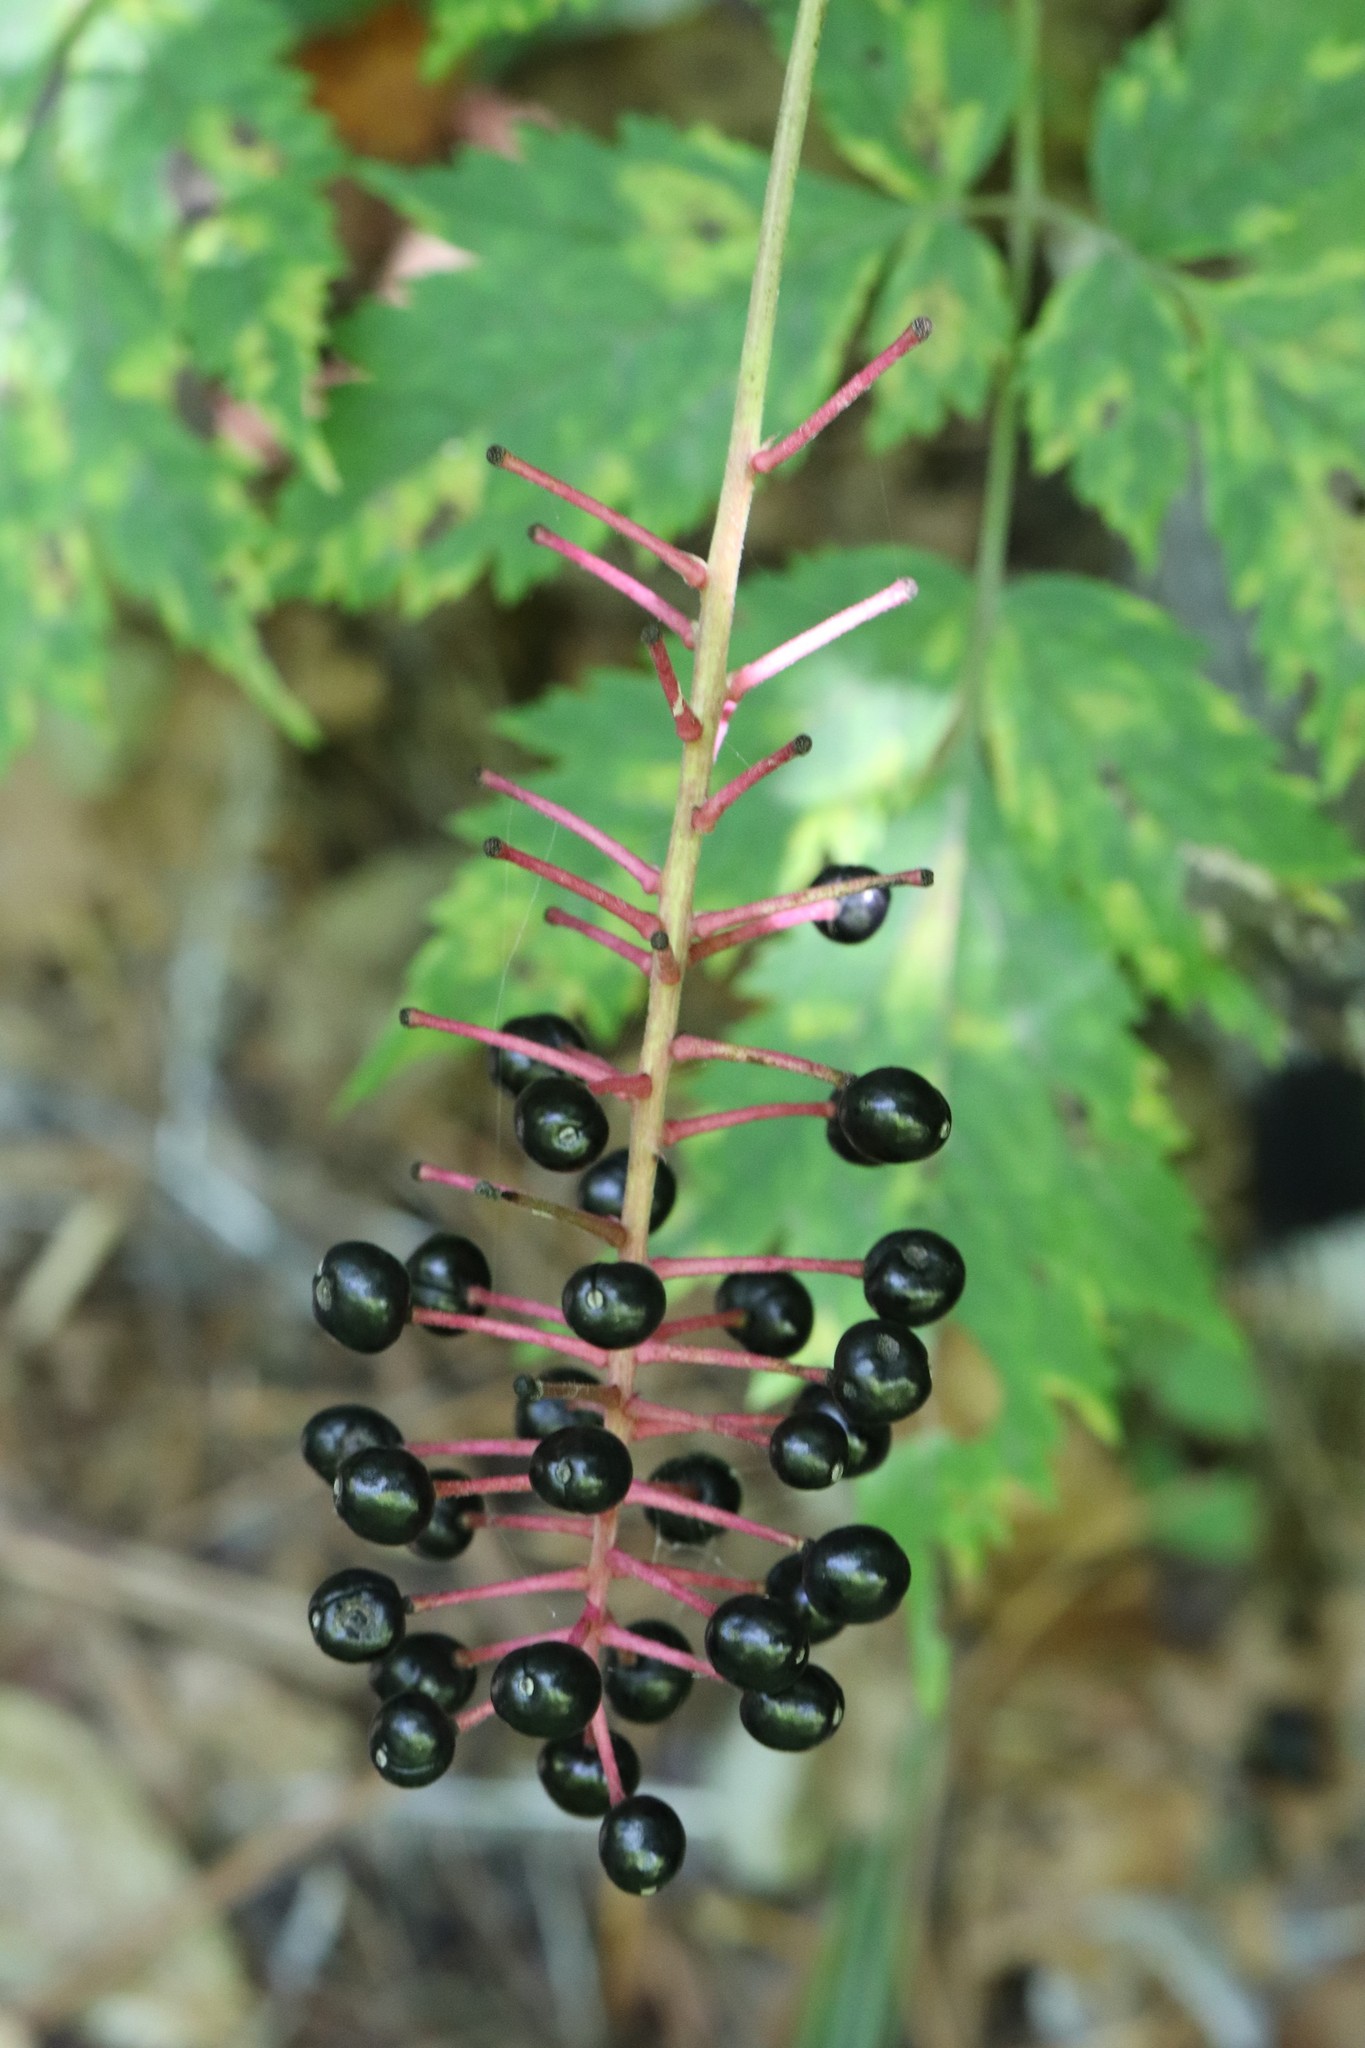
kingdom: Plantae
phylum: Tracheophyta
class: Magnoliopsida
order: Ranunculales
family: Ranunculaceae
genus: Actaea
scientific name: Actaea spicata
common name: Baneberry
